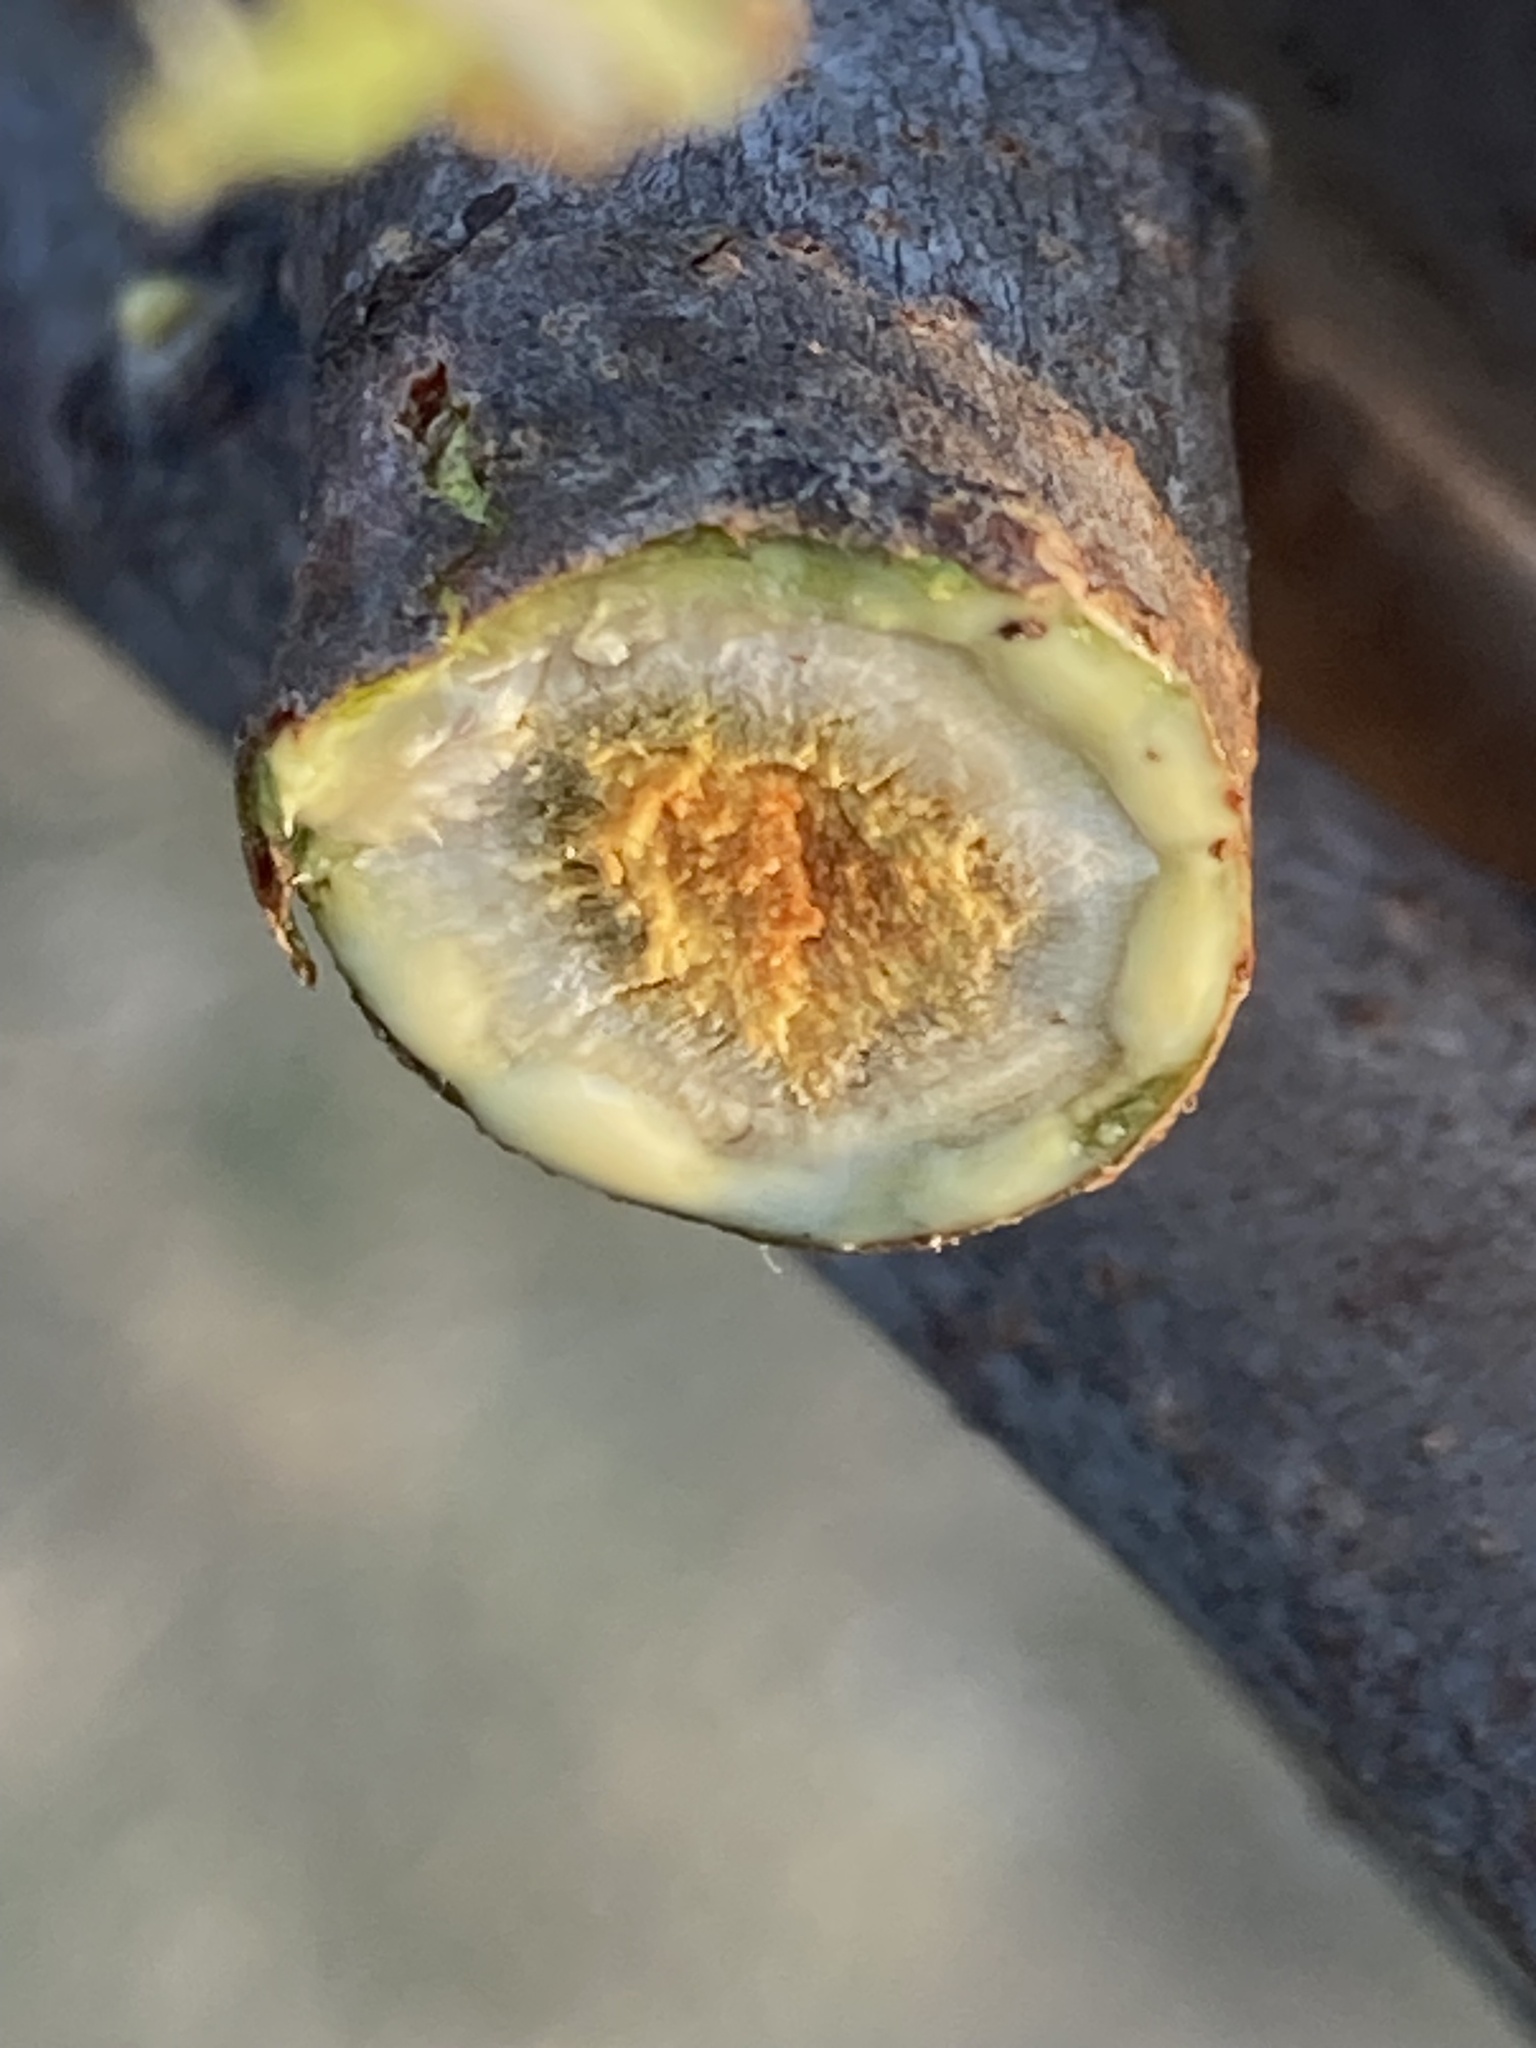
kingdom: Plantae
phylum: Tracheophyta
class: Magnoliopsida
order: Sapindales
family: Anacardiaceae
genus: Rhus
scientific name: Rhus glabra
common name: Scarlet sumac
